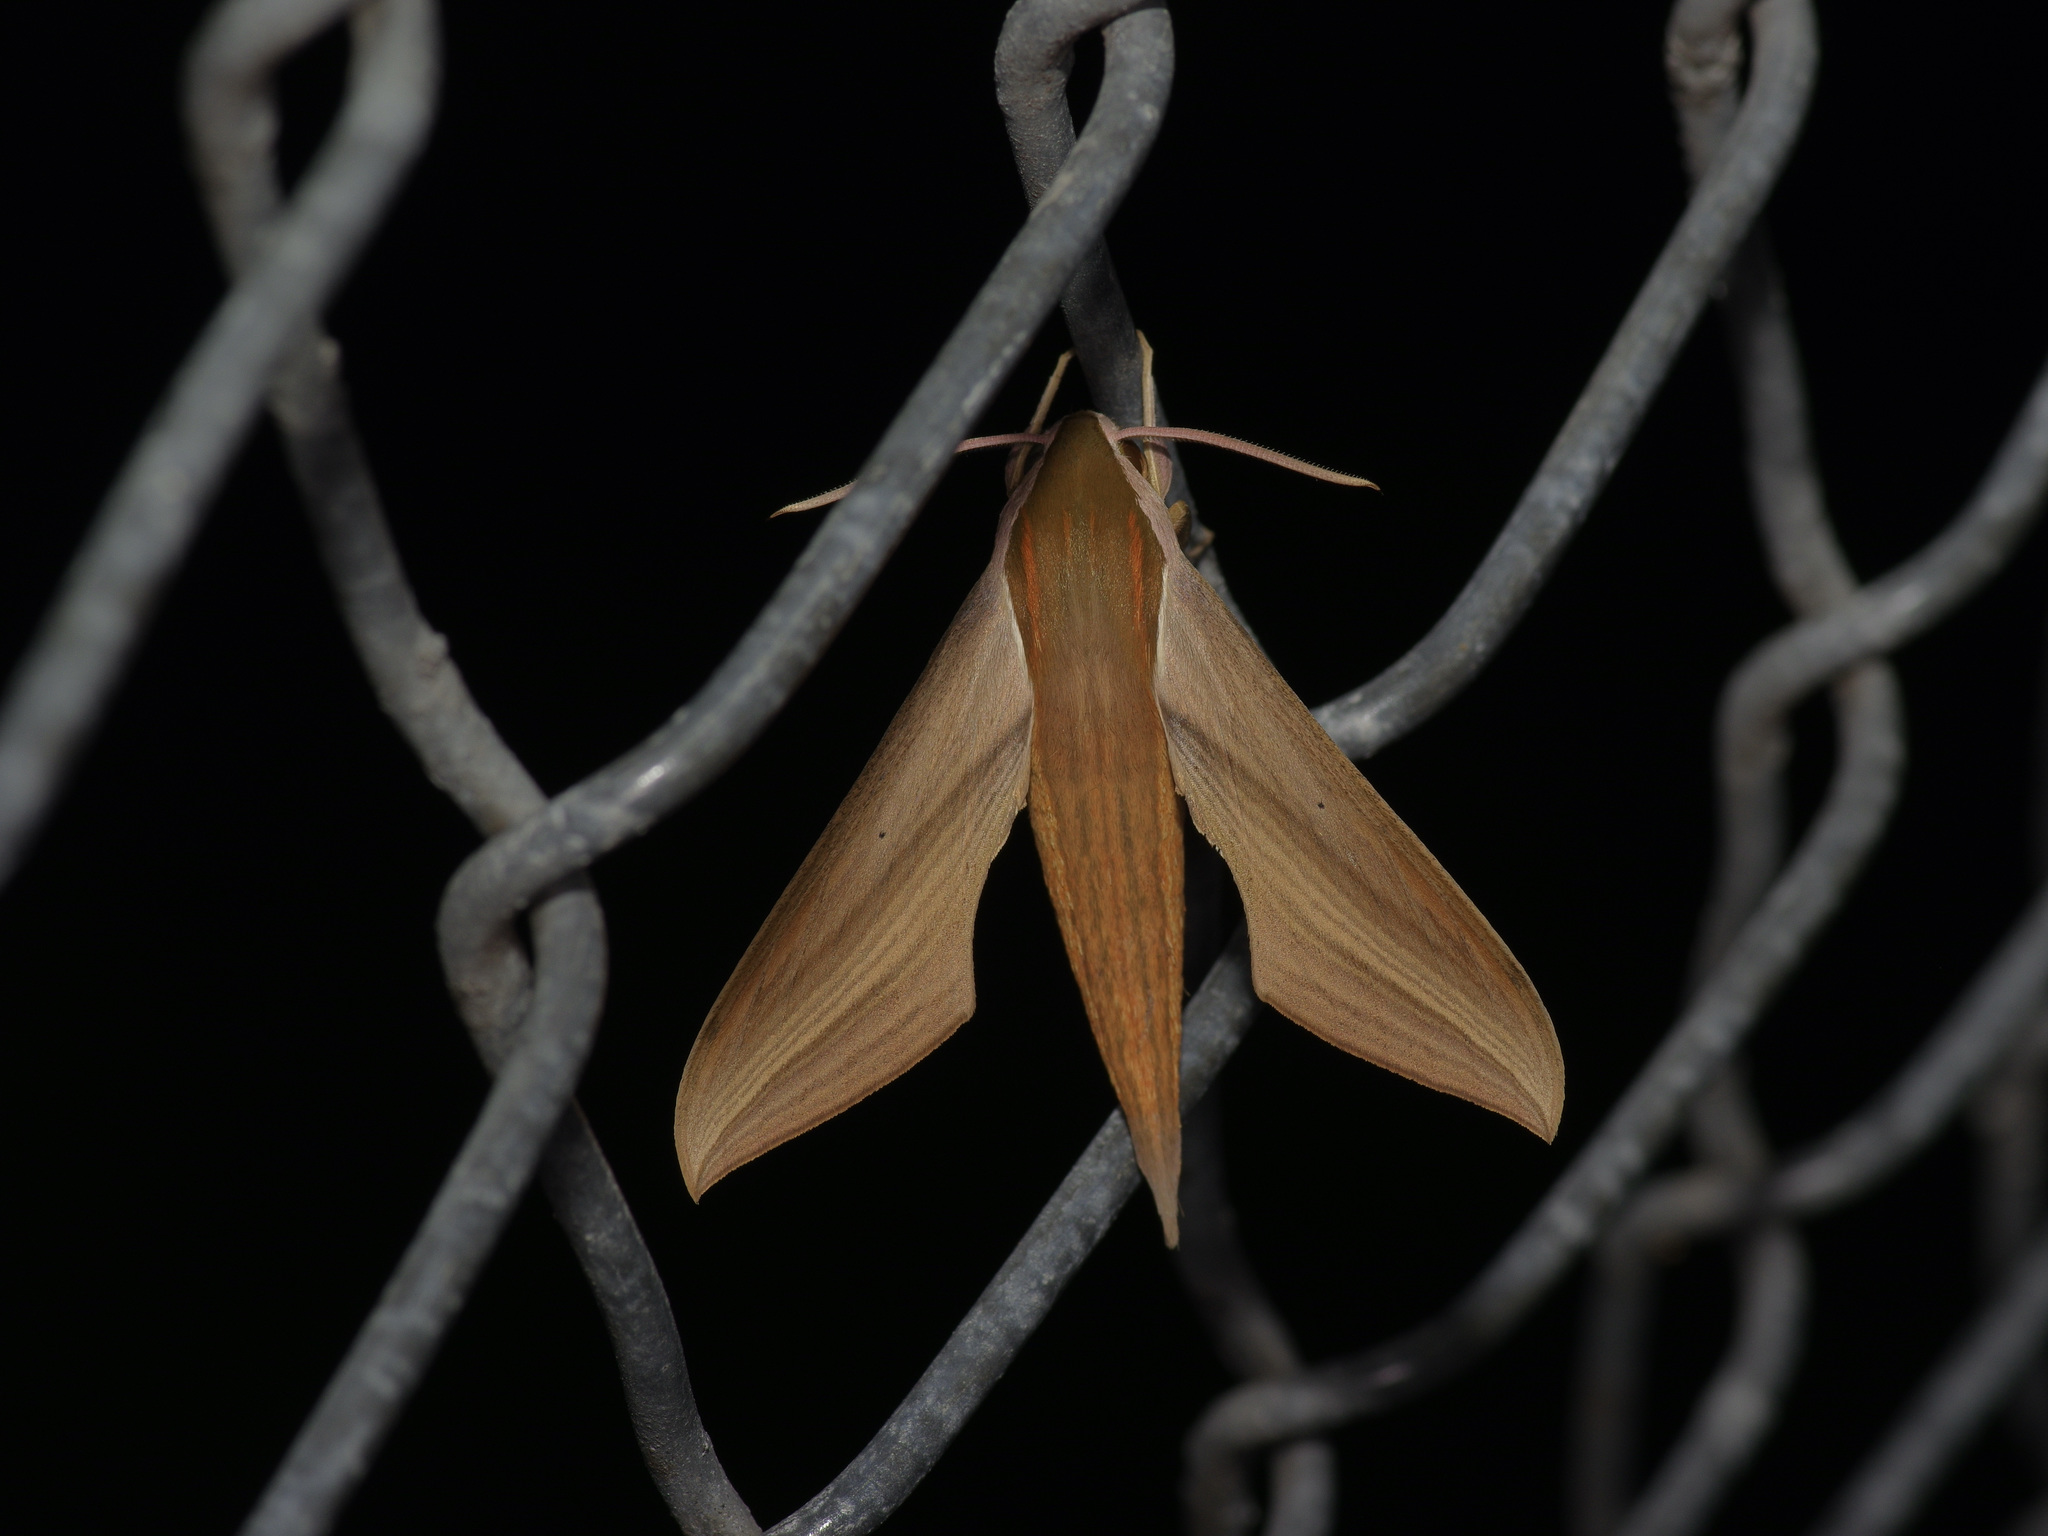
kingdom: Animalia
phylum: Arthropoda
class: Insecta
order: Lepidoptera
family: Sphingidae
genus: Xylophanes
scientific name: Xylophanes tersa
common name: Tersa sphinx
